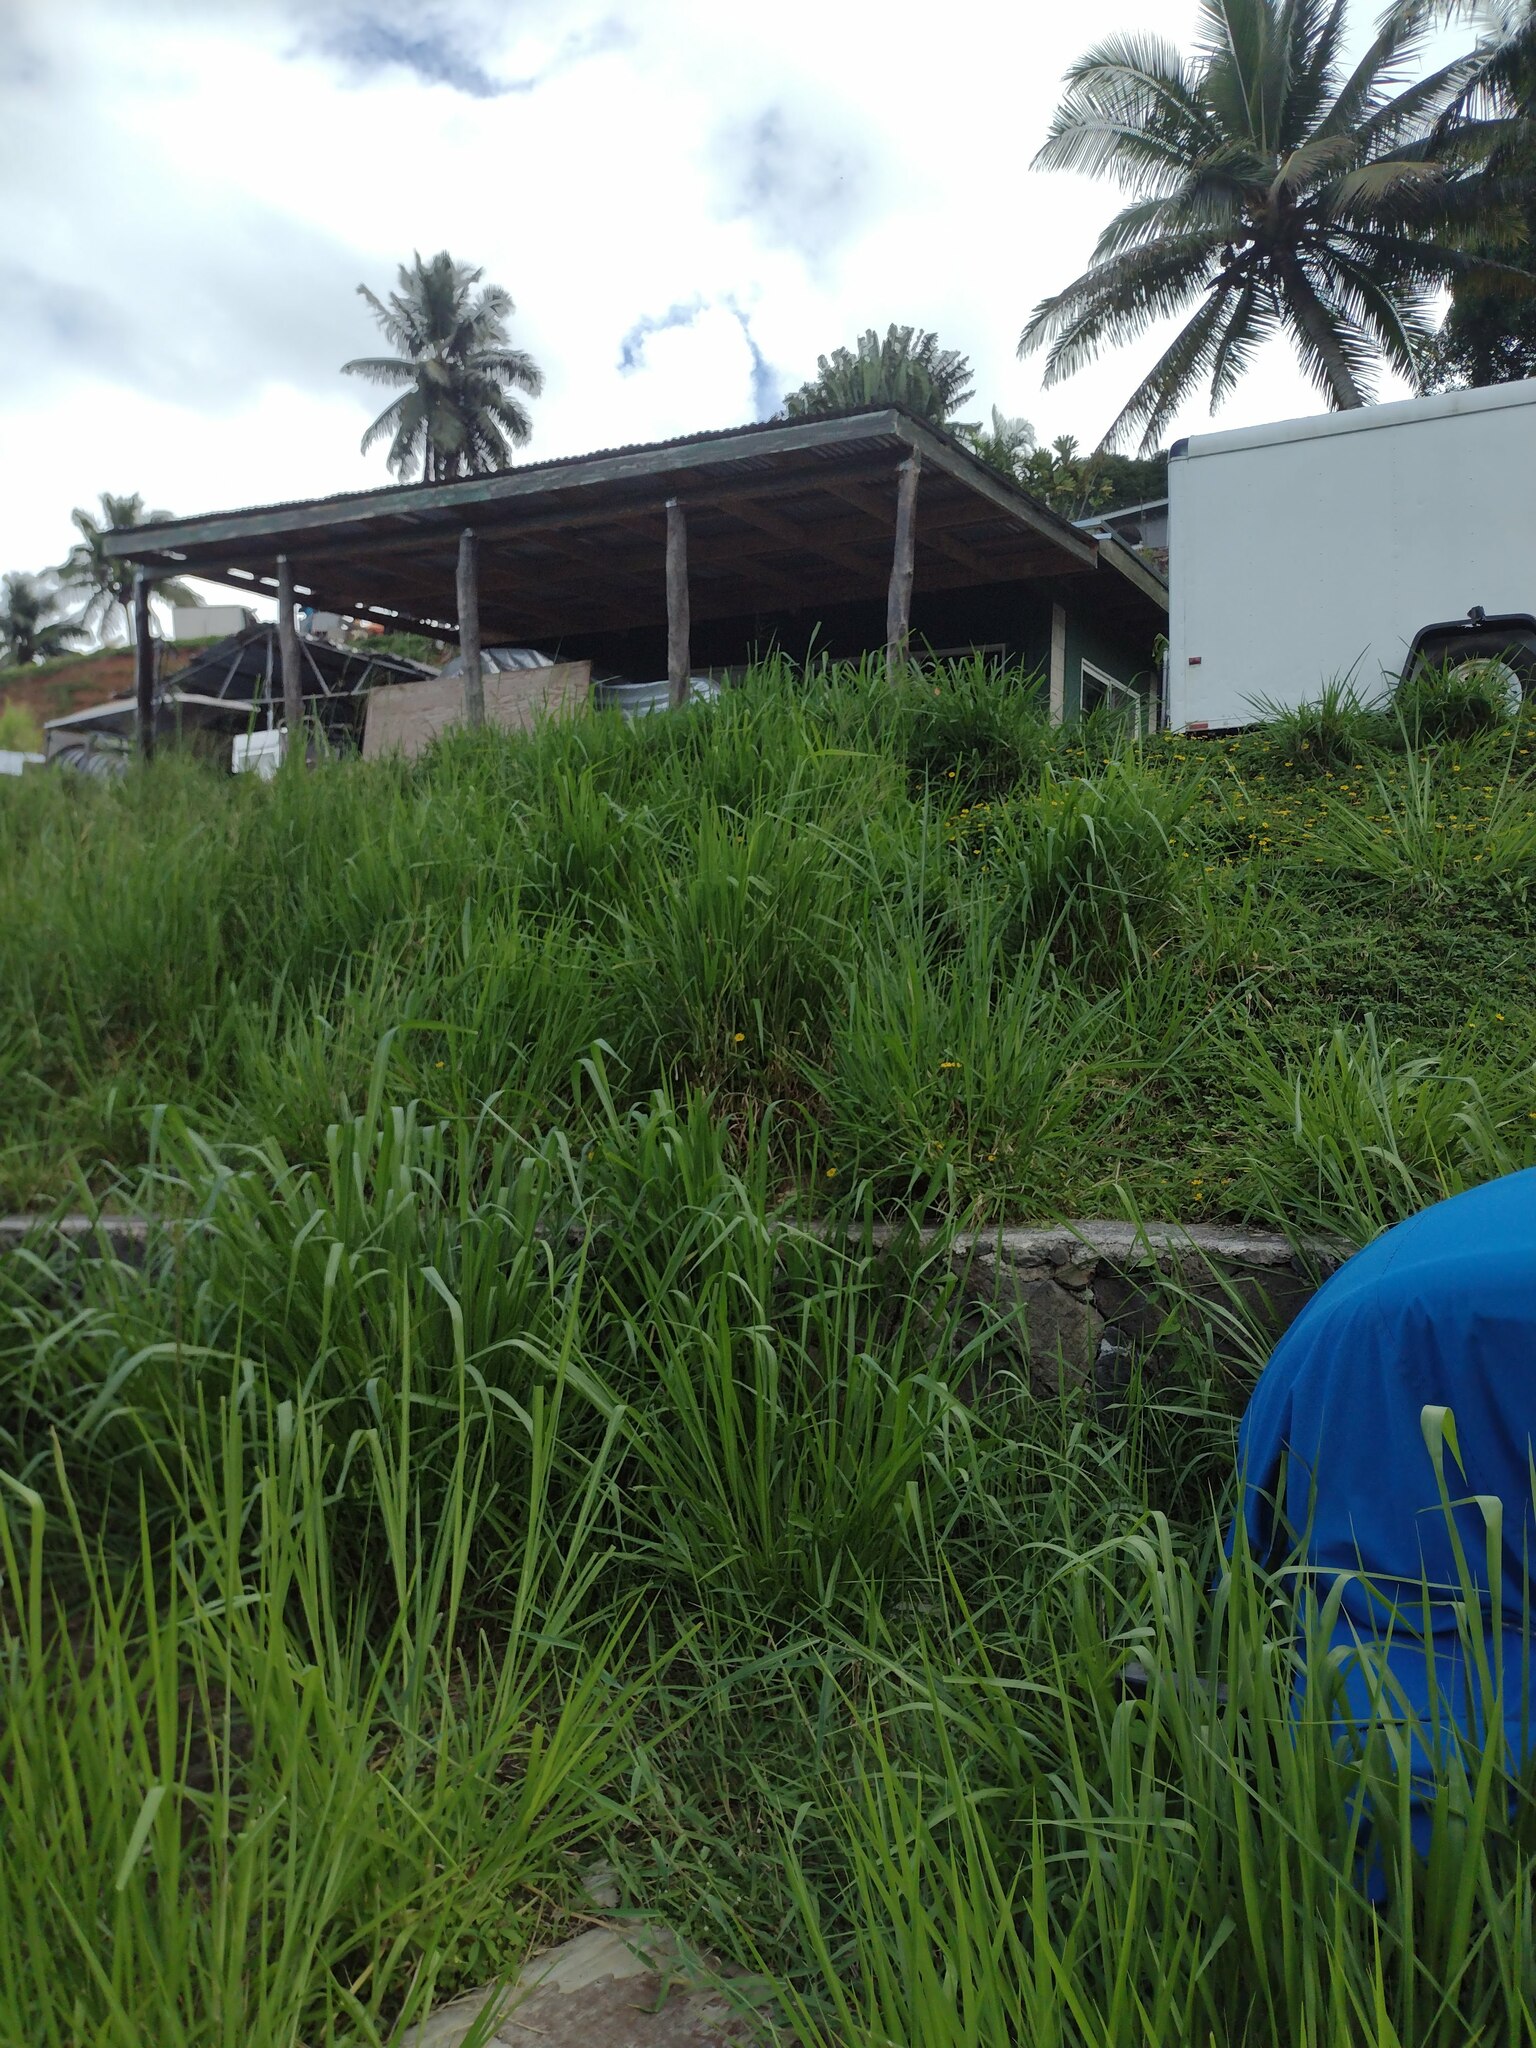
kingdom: Plantae
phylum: Tracheophyta
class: Liliopsida
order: Poales
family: Poaceae
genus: Megathyrsus
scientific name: Megathyrsus maximus
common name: Guineagrass
